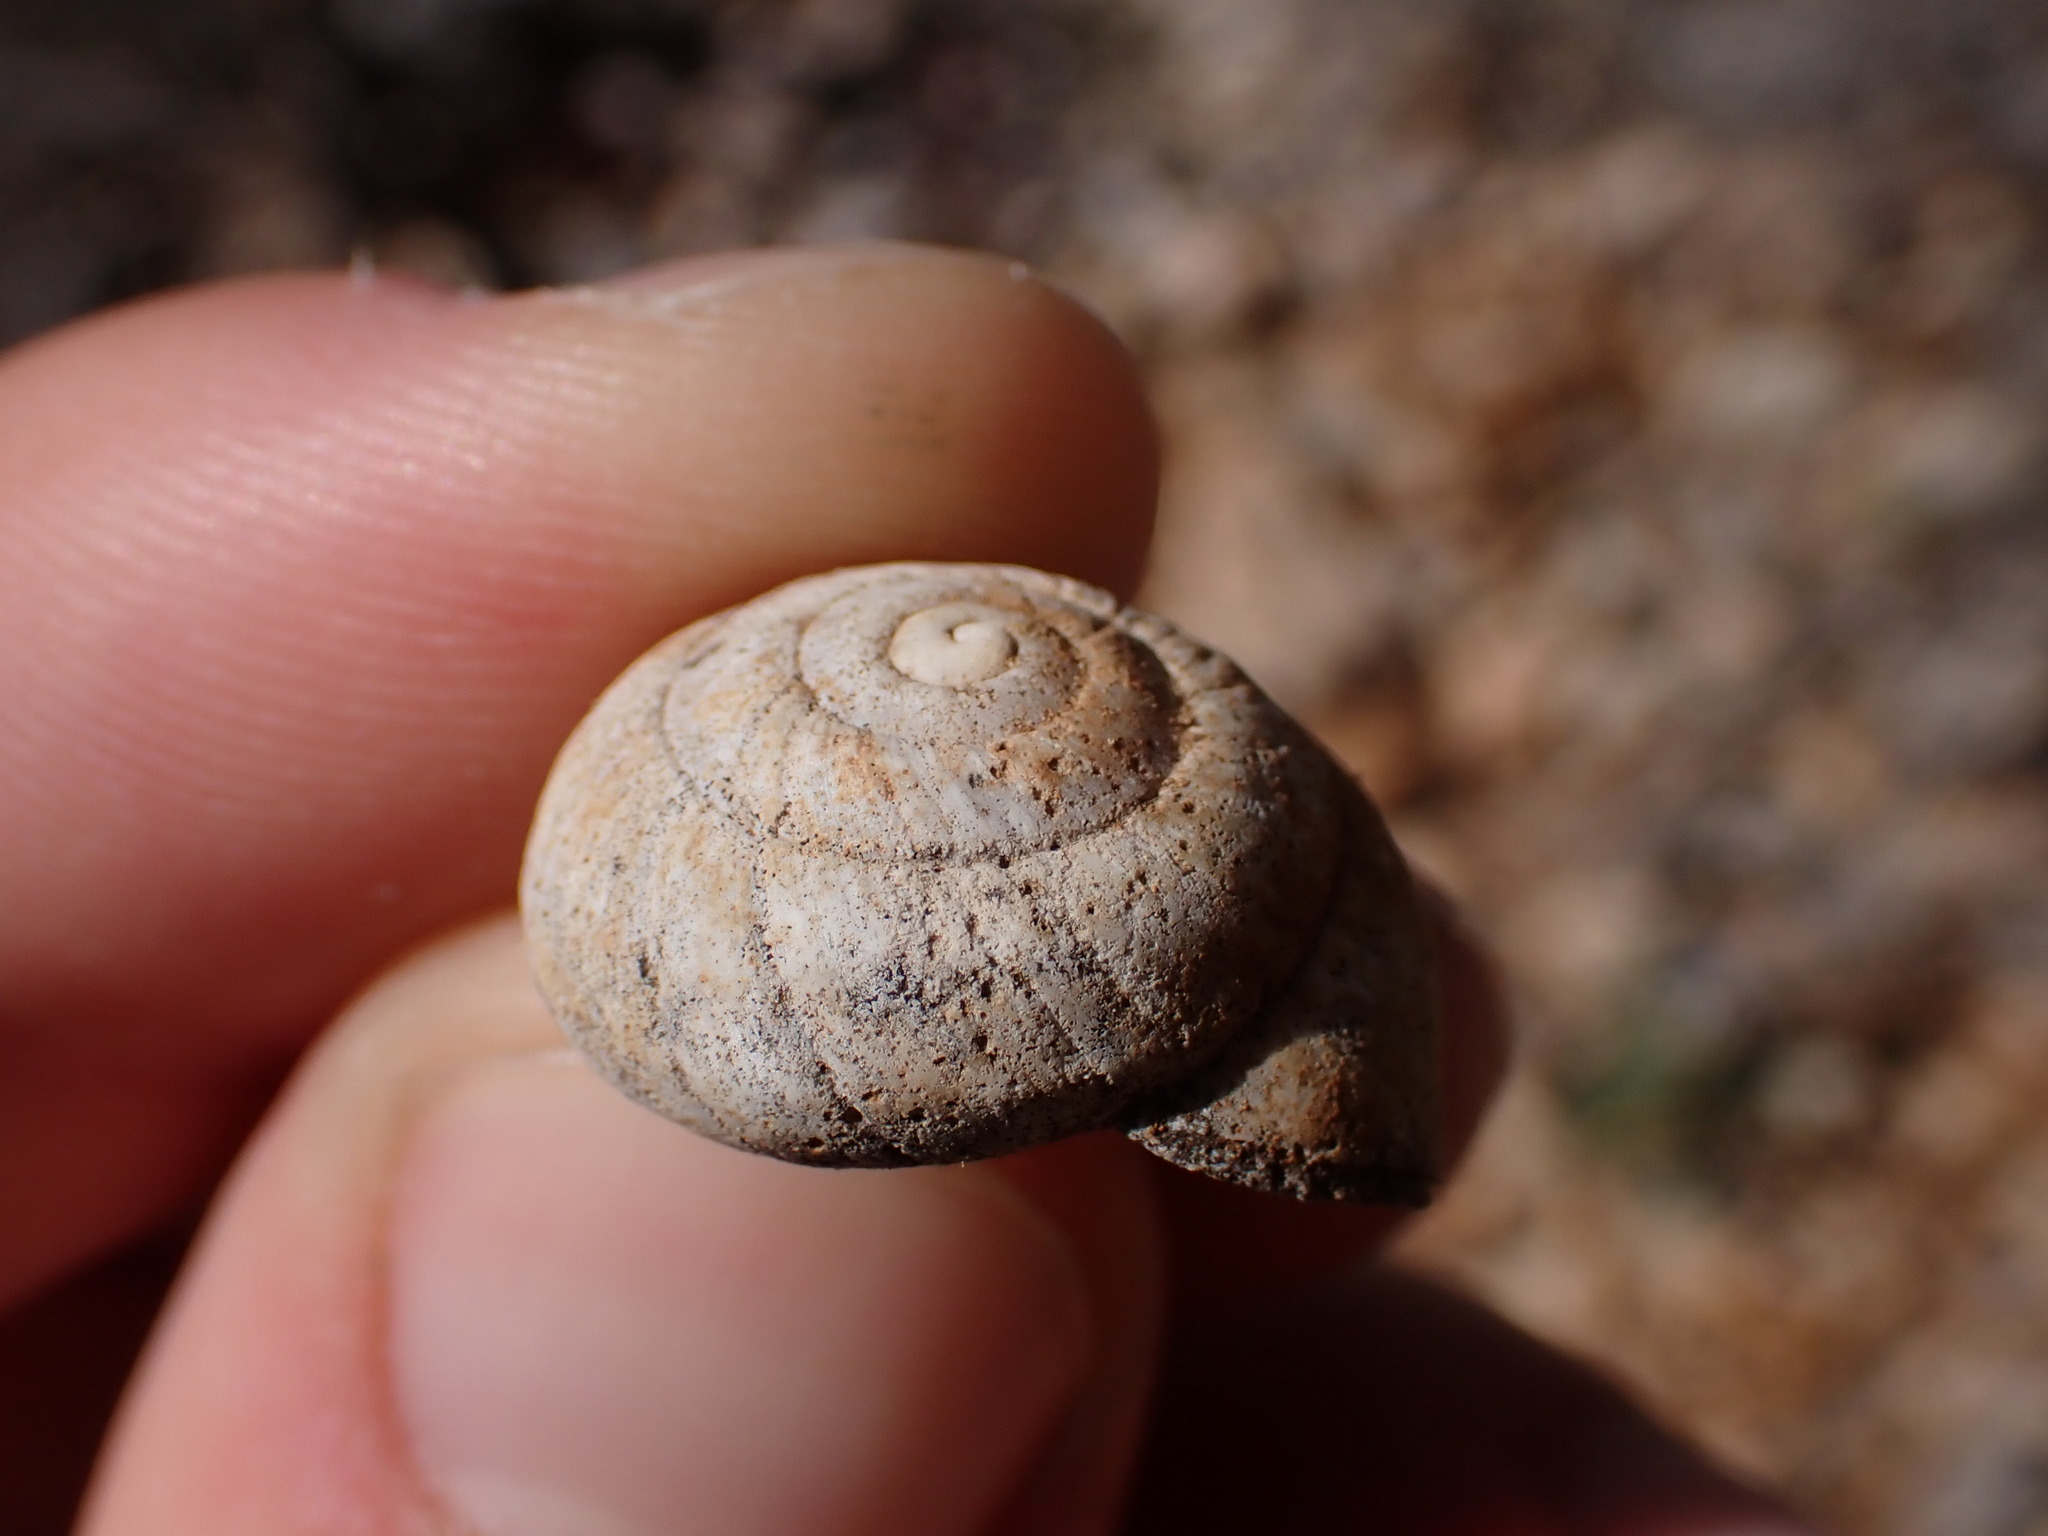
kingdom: Animalia
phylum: Mollusca
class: Gastropoda
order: Stylommatophora
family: Sphincterochilidae
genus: Sphincterochila
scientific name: Sphincterochila candidissima
